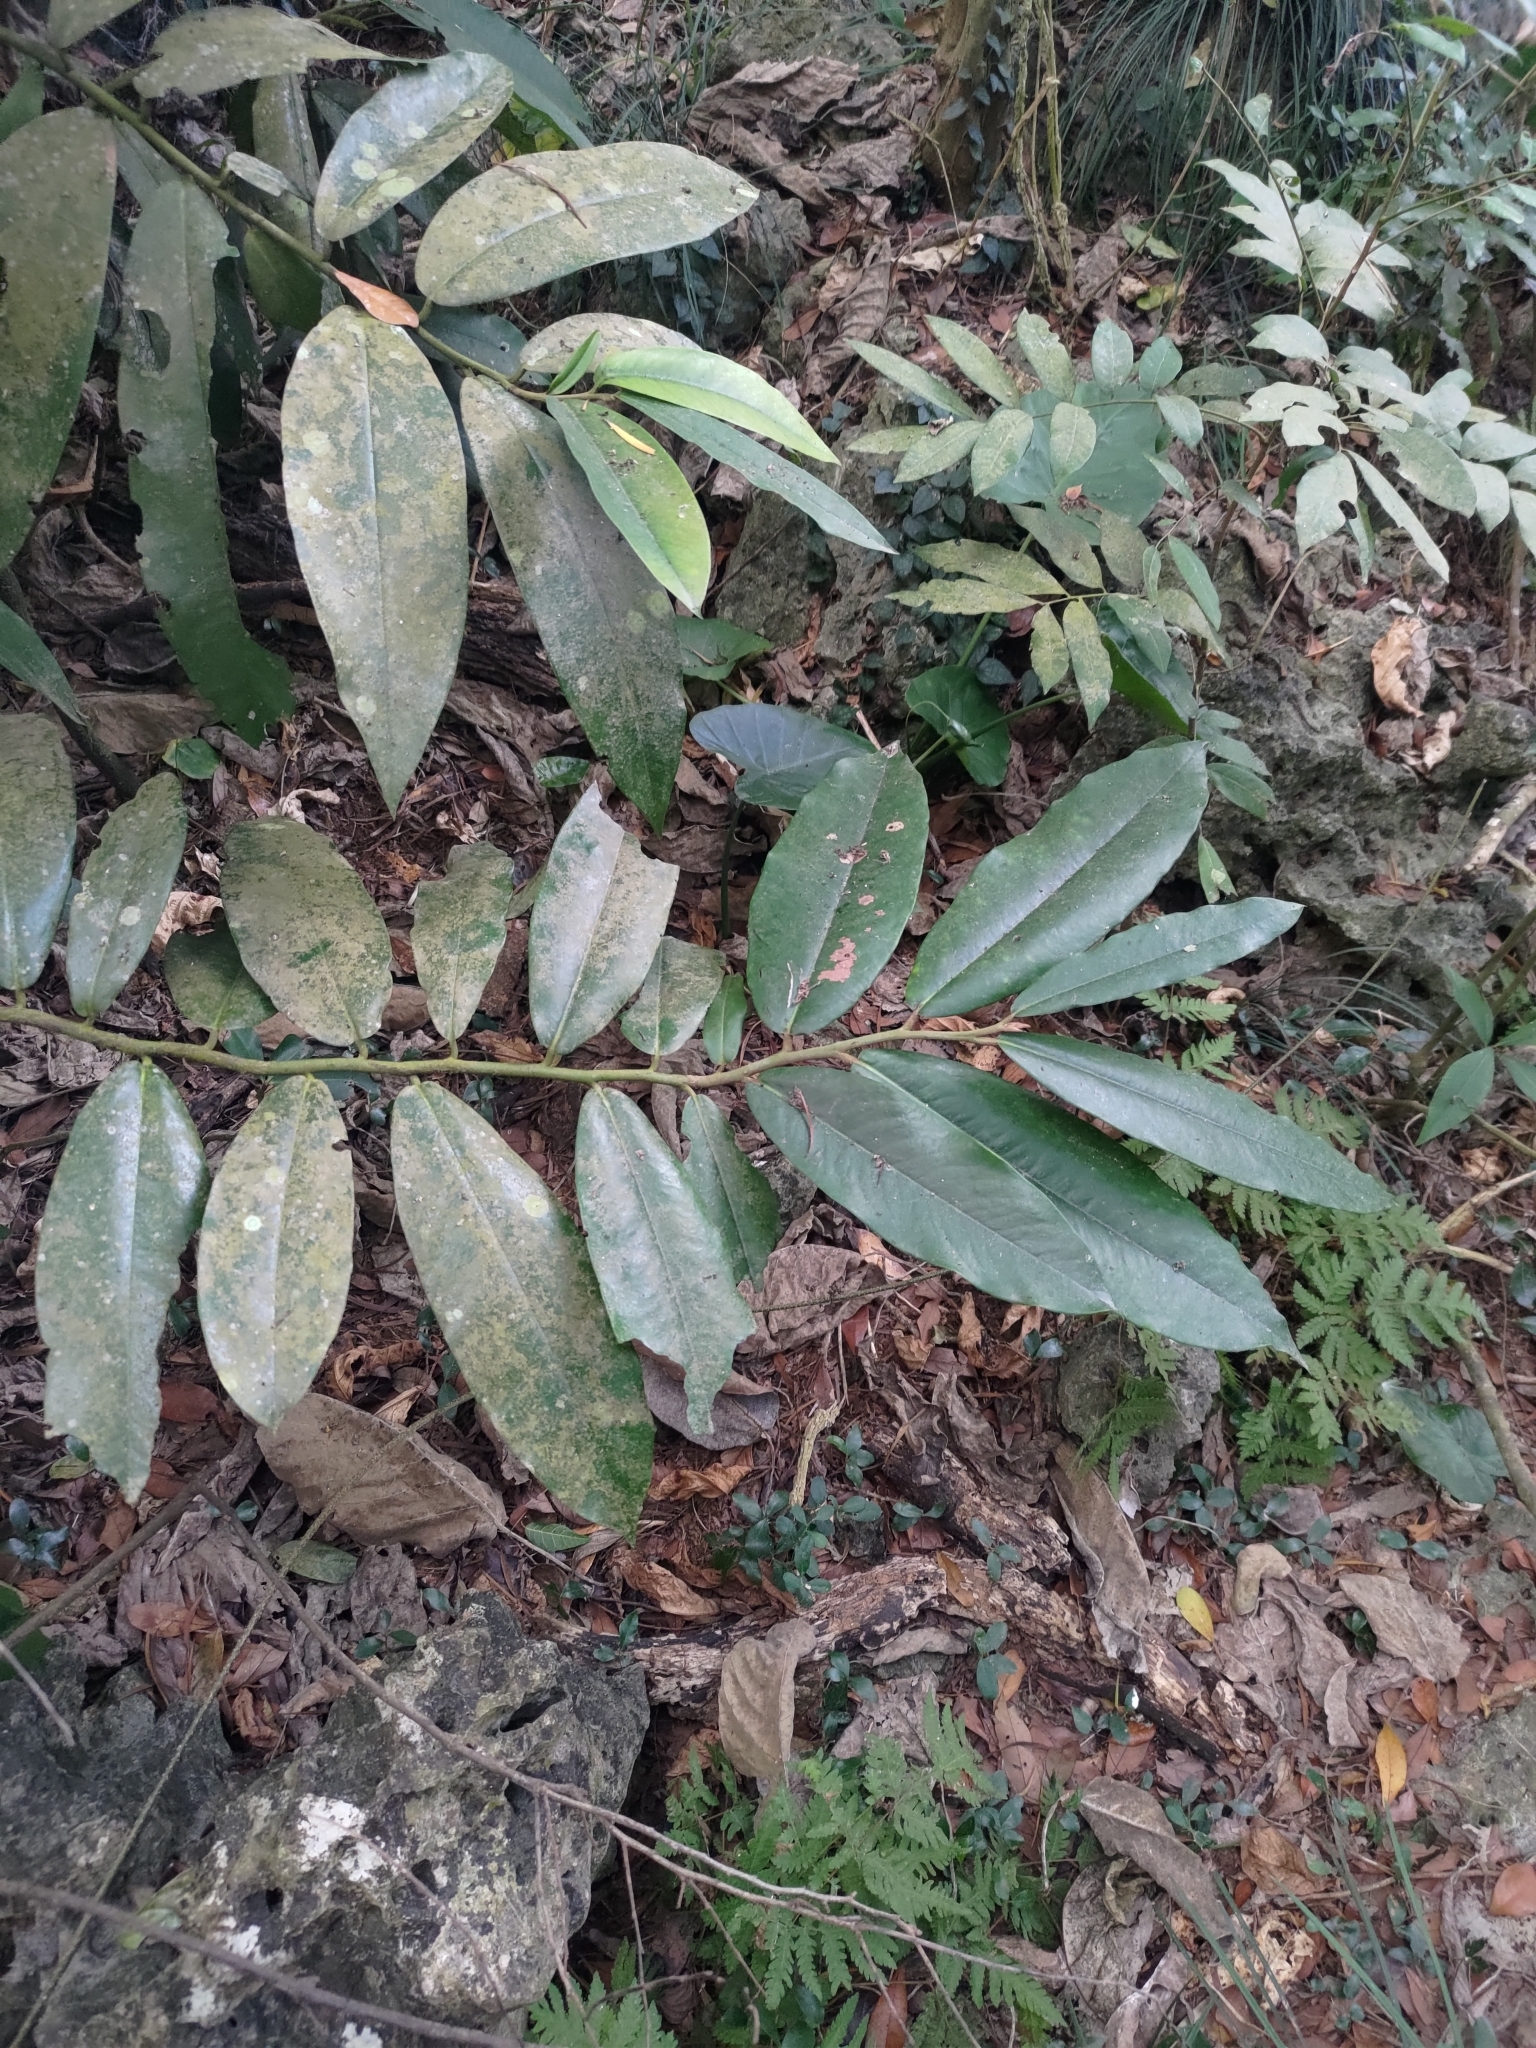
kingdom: Plantae
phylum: Tracheophyta
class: Magnoliopsida
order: Ericales
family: Ebenaceae
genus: Diospyros
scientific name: Diospyros blancoi
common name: Mabola-tree
